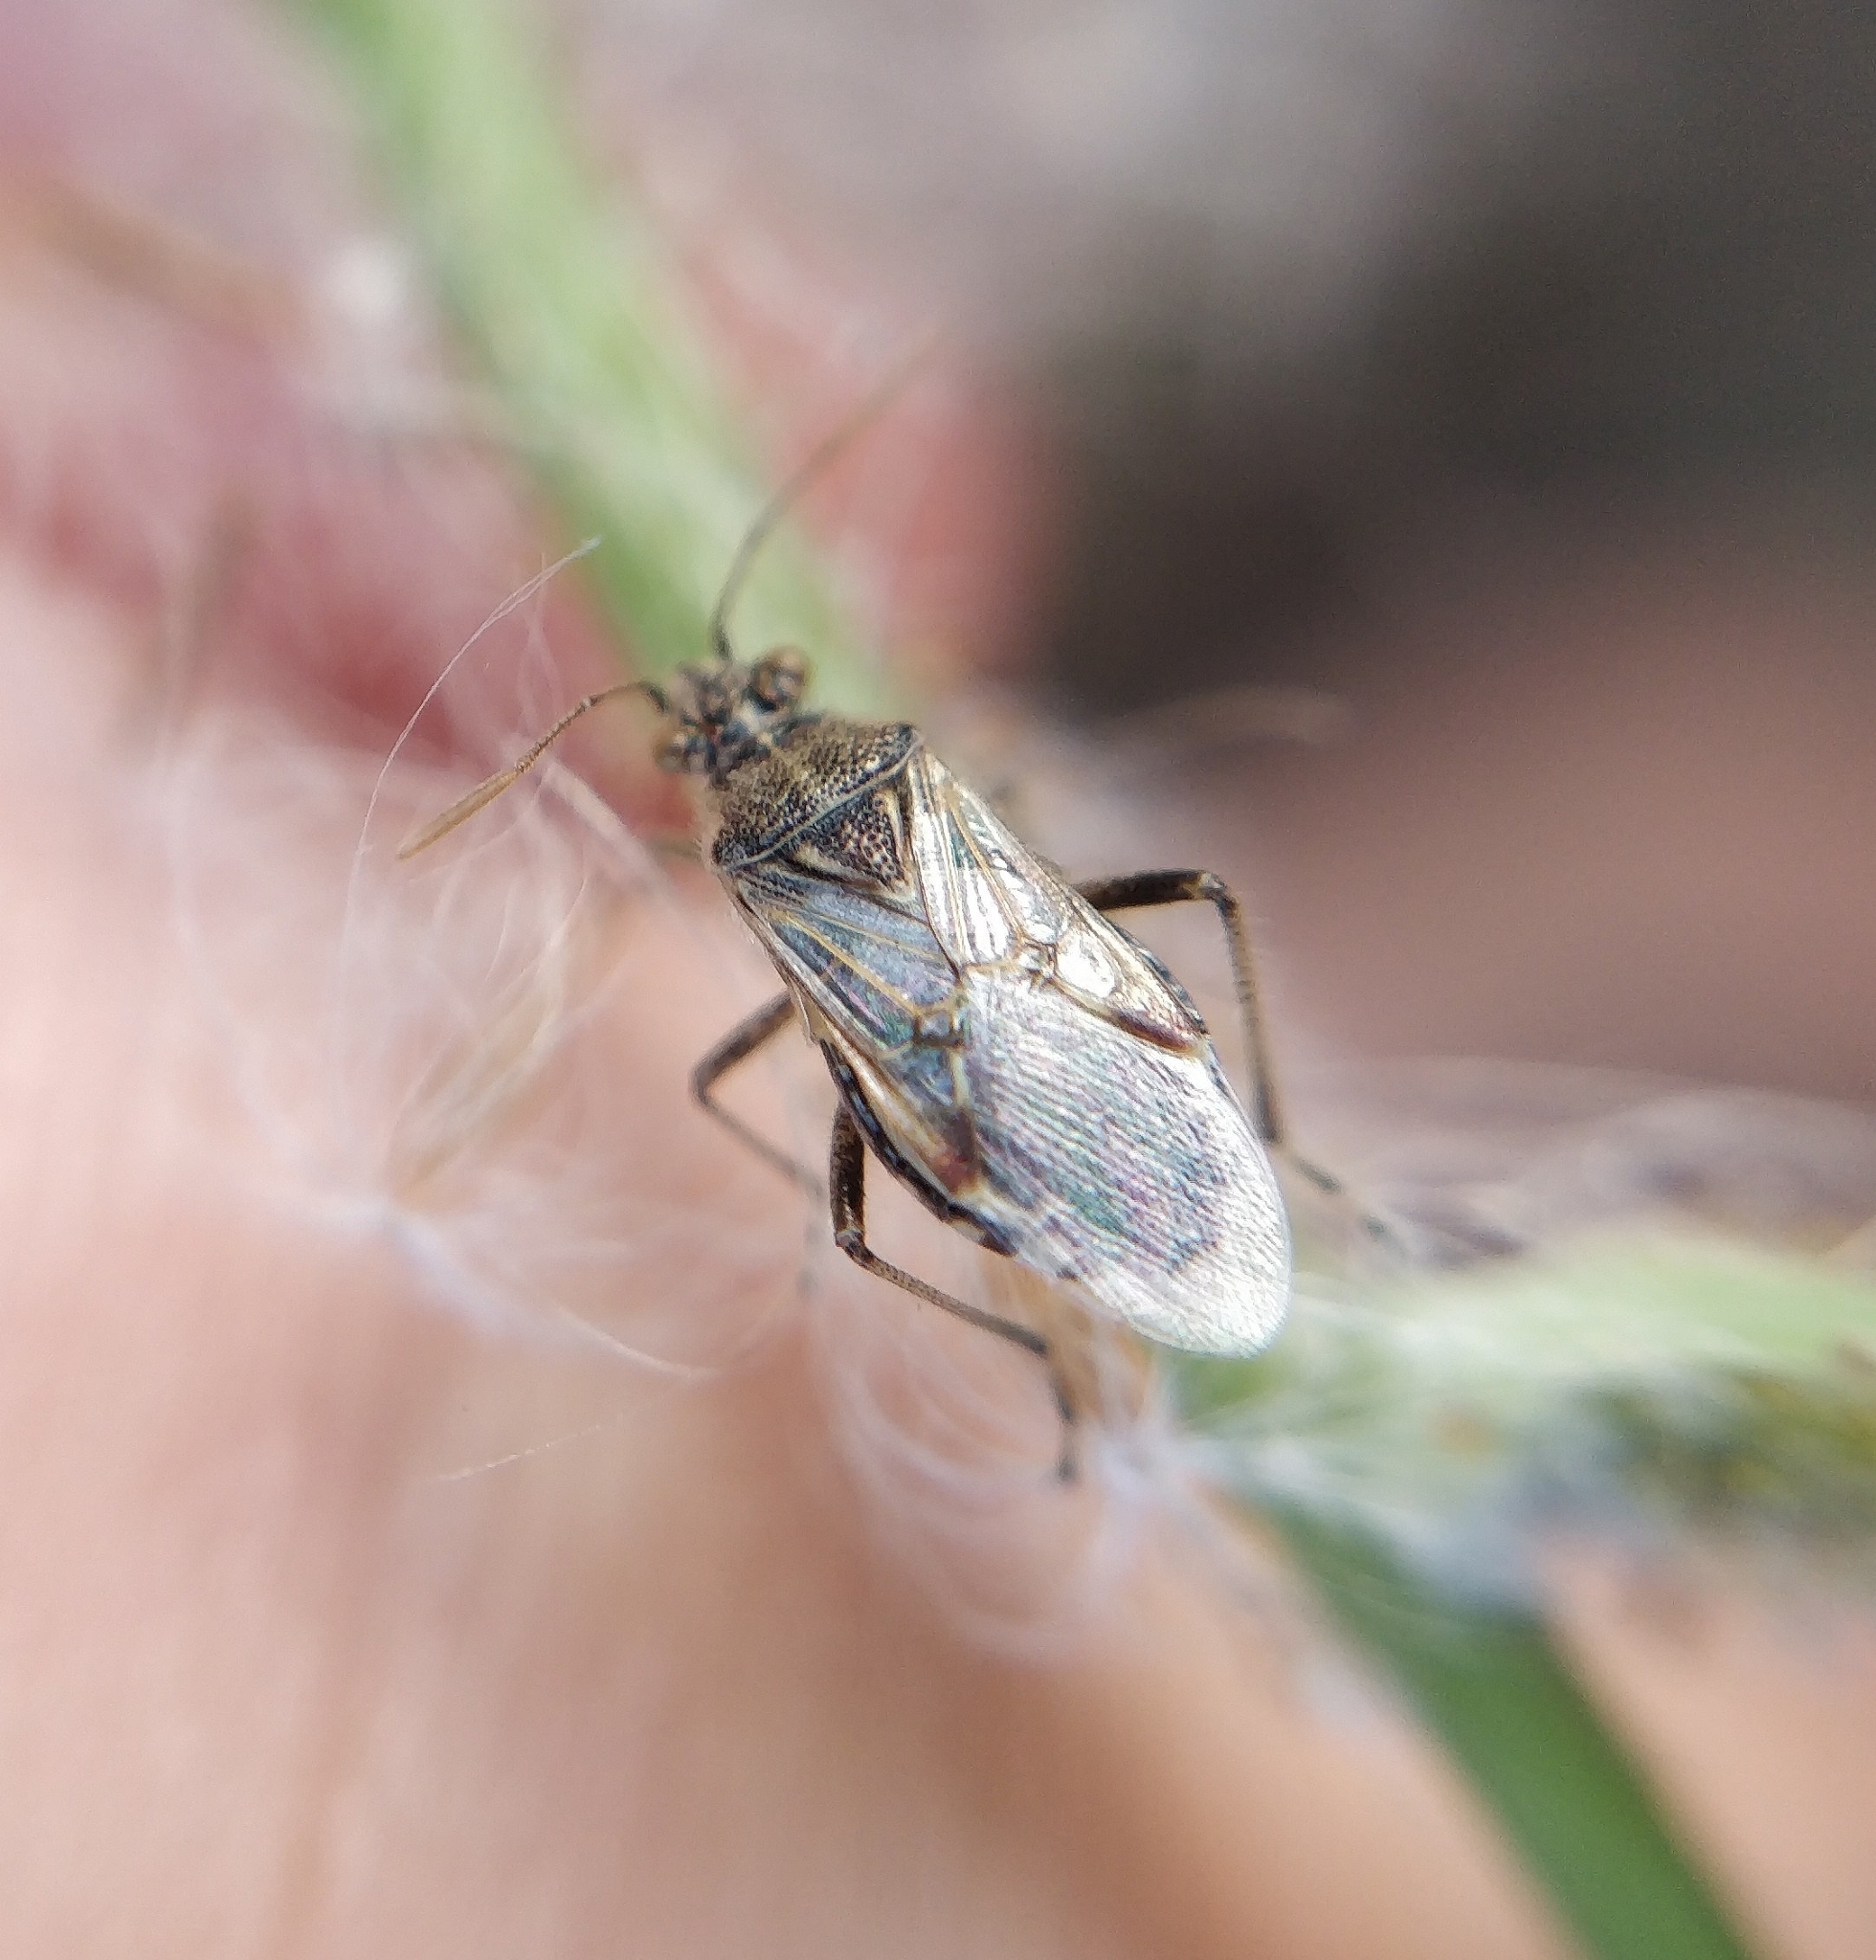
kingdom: Animalia
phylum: Arthropoda
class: Insecta
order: Hemiptera
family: Rhopalidae
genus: Liorhyssus
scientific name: Liorhyssus hyalinus
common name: Scentless plant bug
